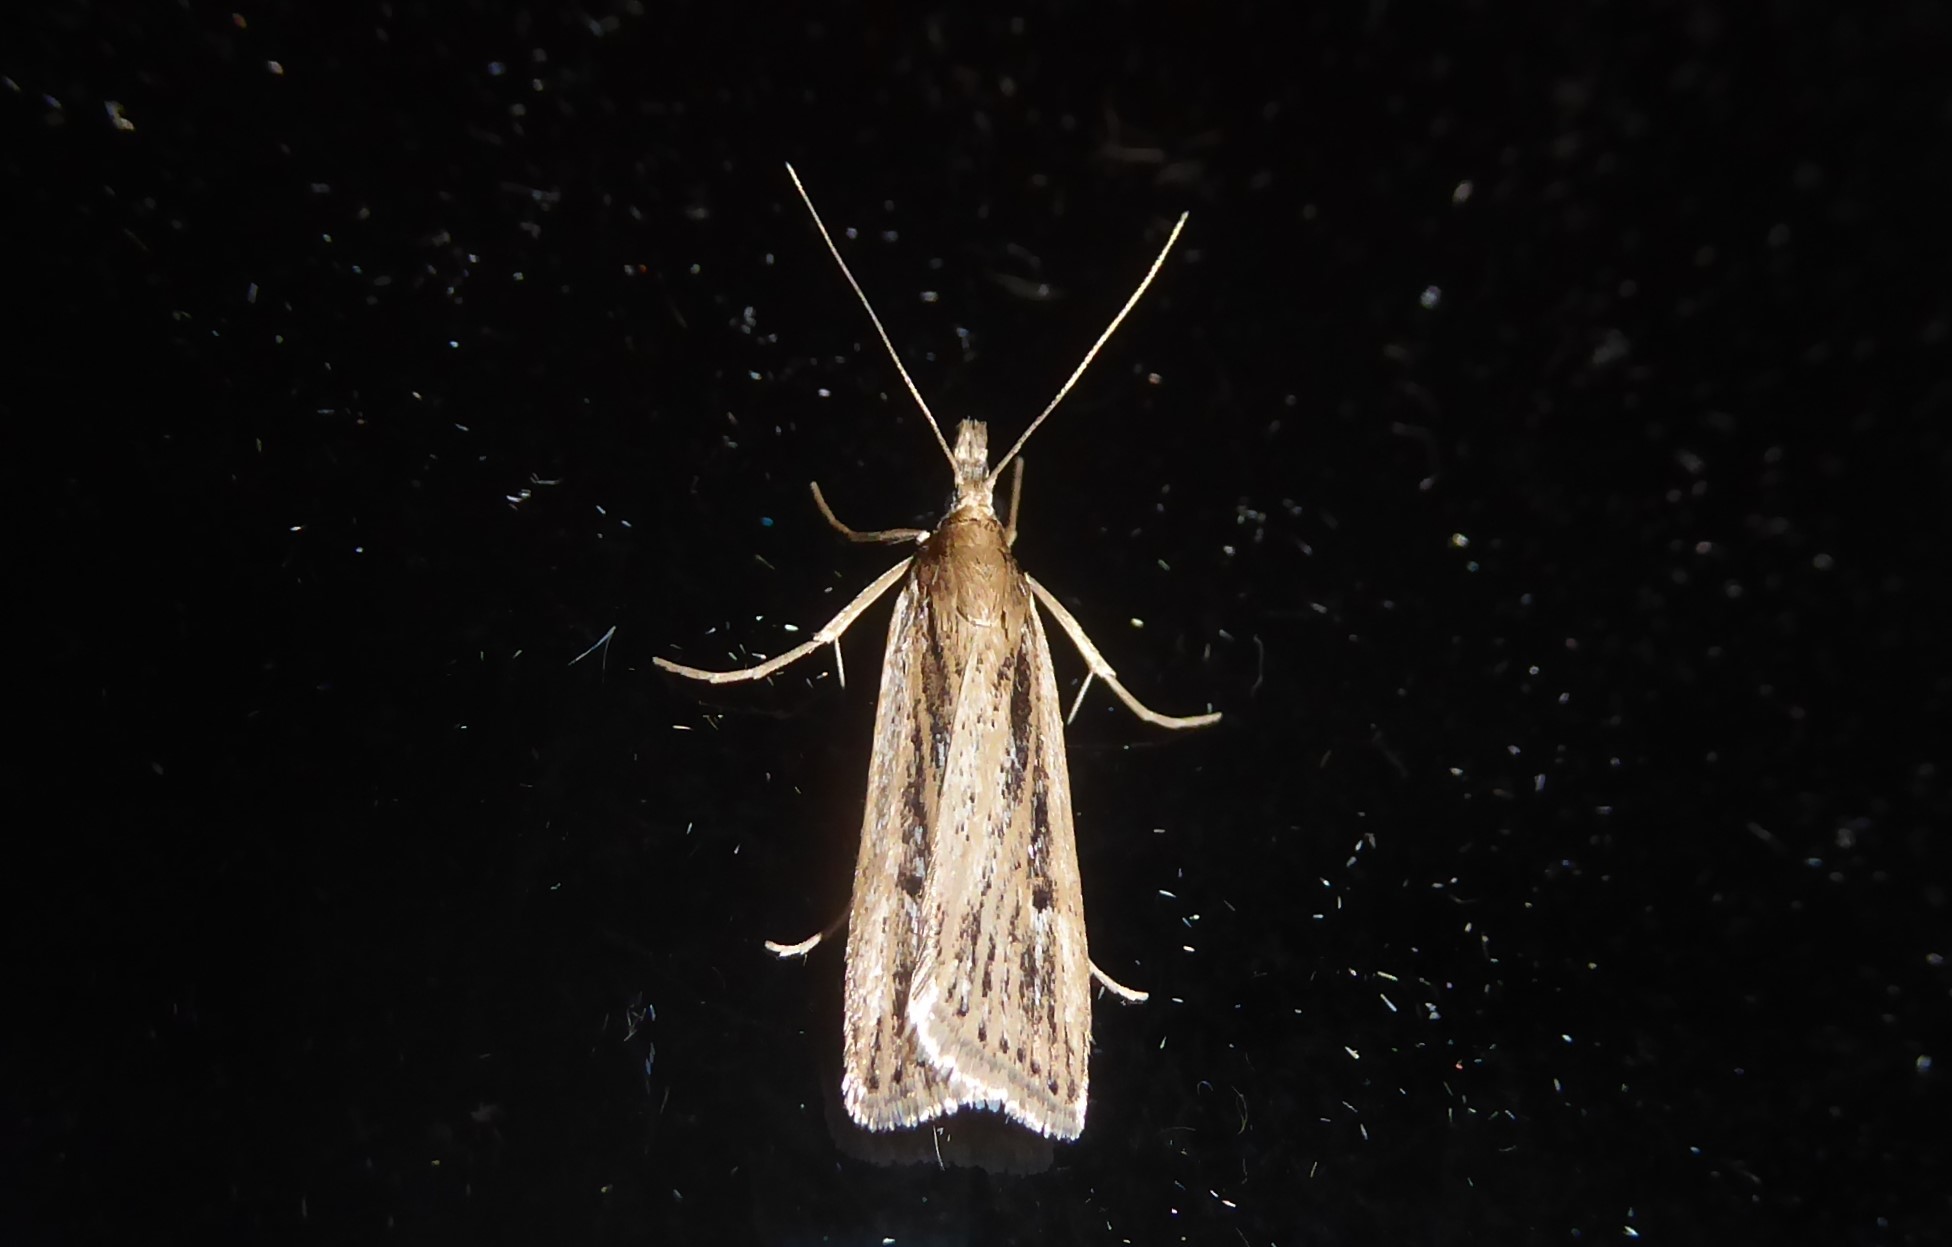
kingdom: Animalia
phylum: Arthropoda
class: Insecta
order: Lepidoptera
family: Crambidae
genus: Eudonia
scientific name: Eudonia sabulosella
